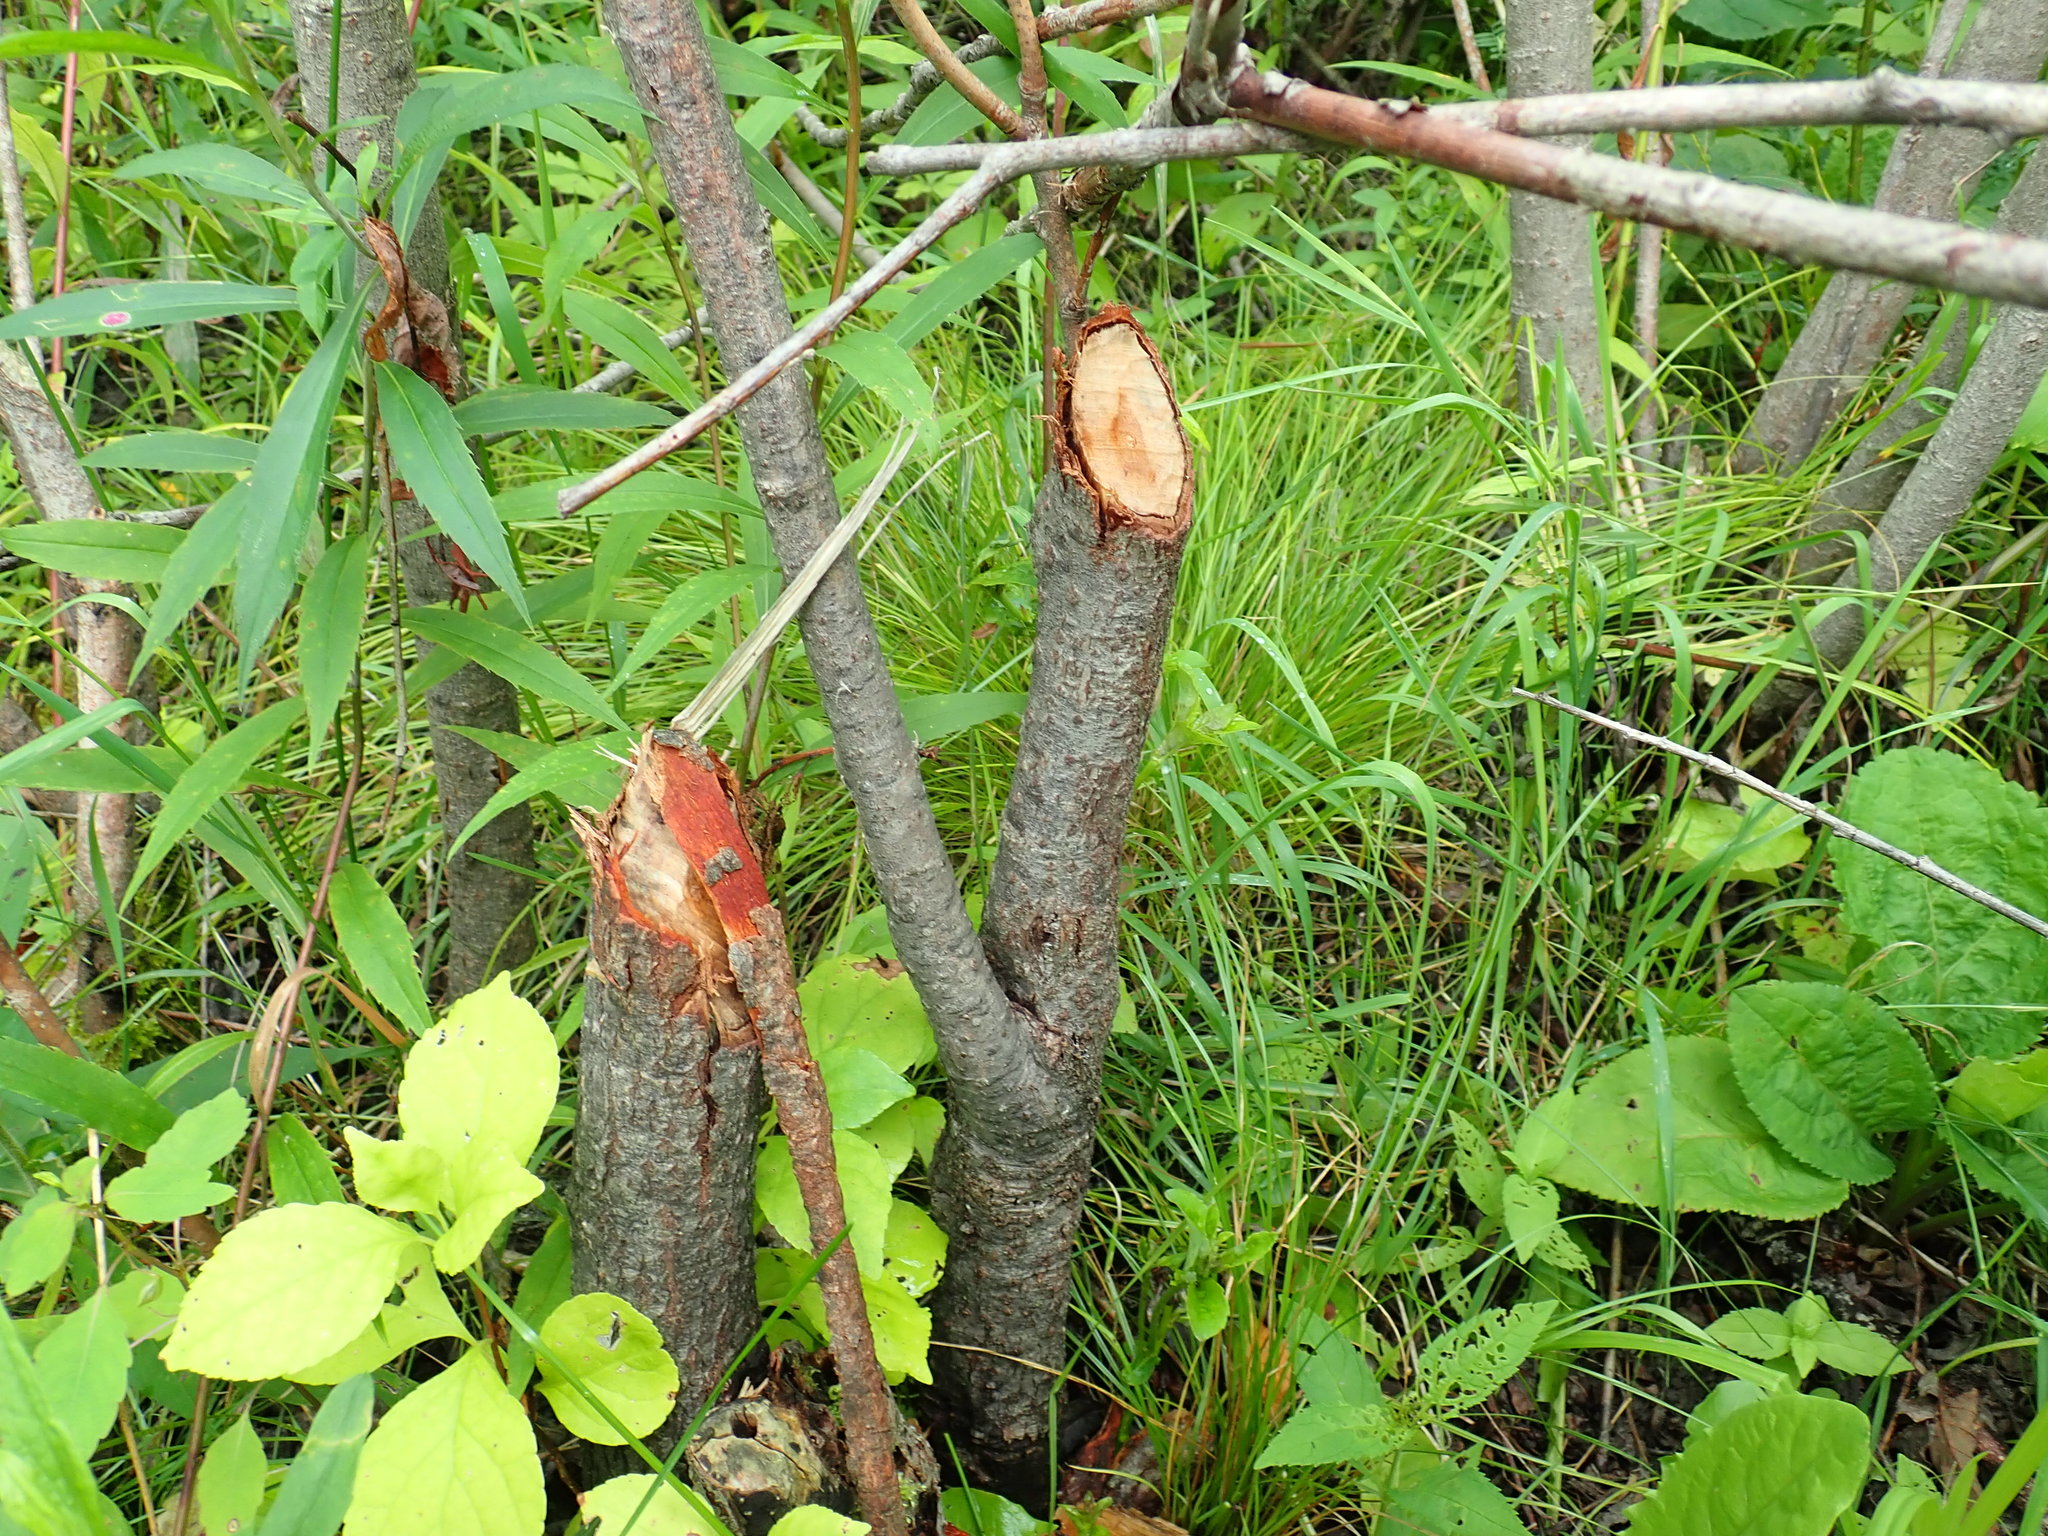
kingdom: Animalia
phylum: Chordata
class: Mammalia
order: Rodentia
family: Castoridae
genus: Castor
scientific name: Castor canadensis
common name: American beaver
